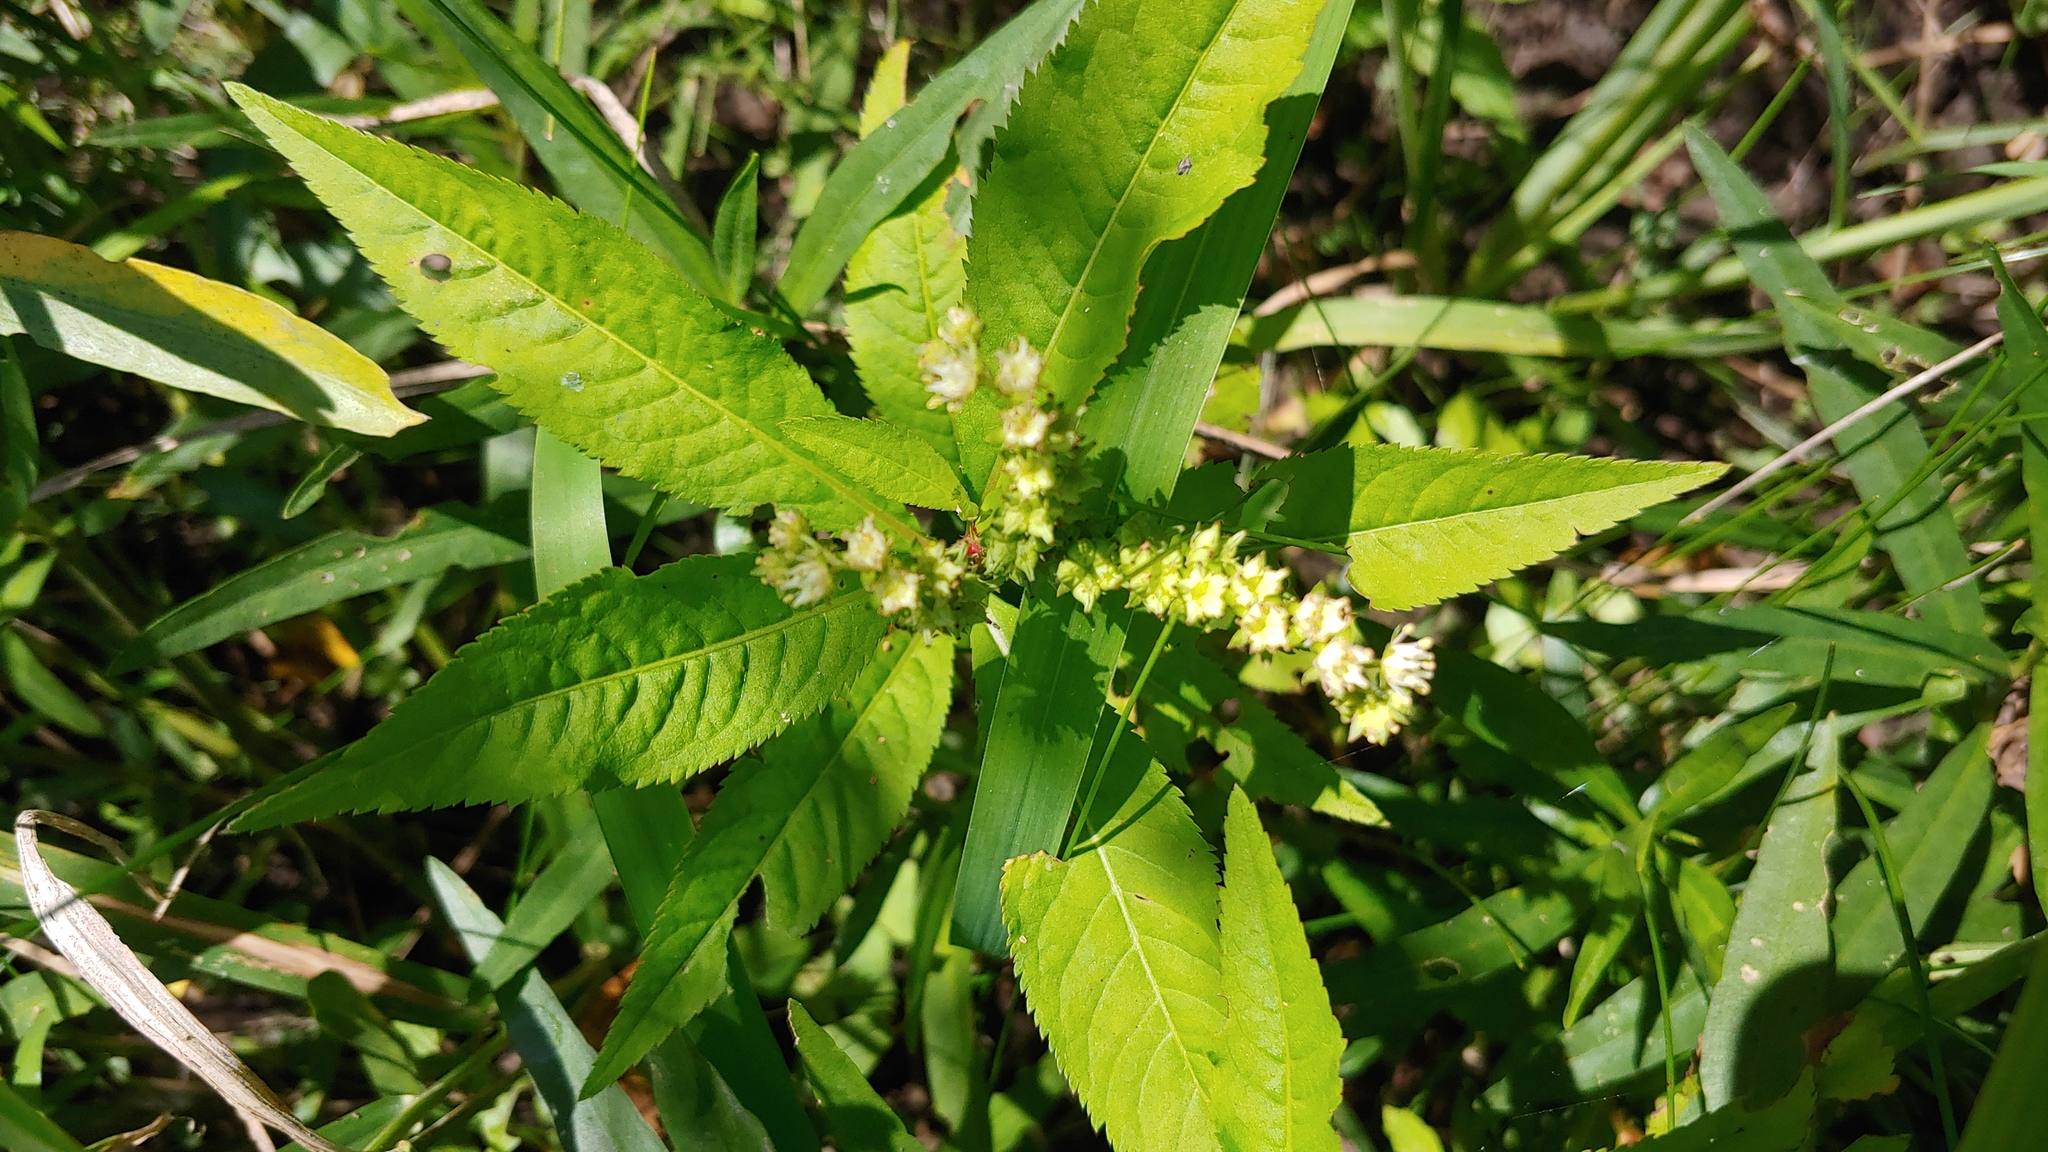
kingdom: Plantae
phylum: Tracheophyta
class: Magnoliopsida
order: Saxifragales
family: Penthoraceae
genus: Penthorum
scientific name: Penthorum sedoides
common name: Ditch stonecrop
